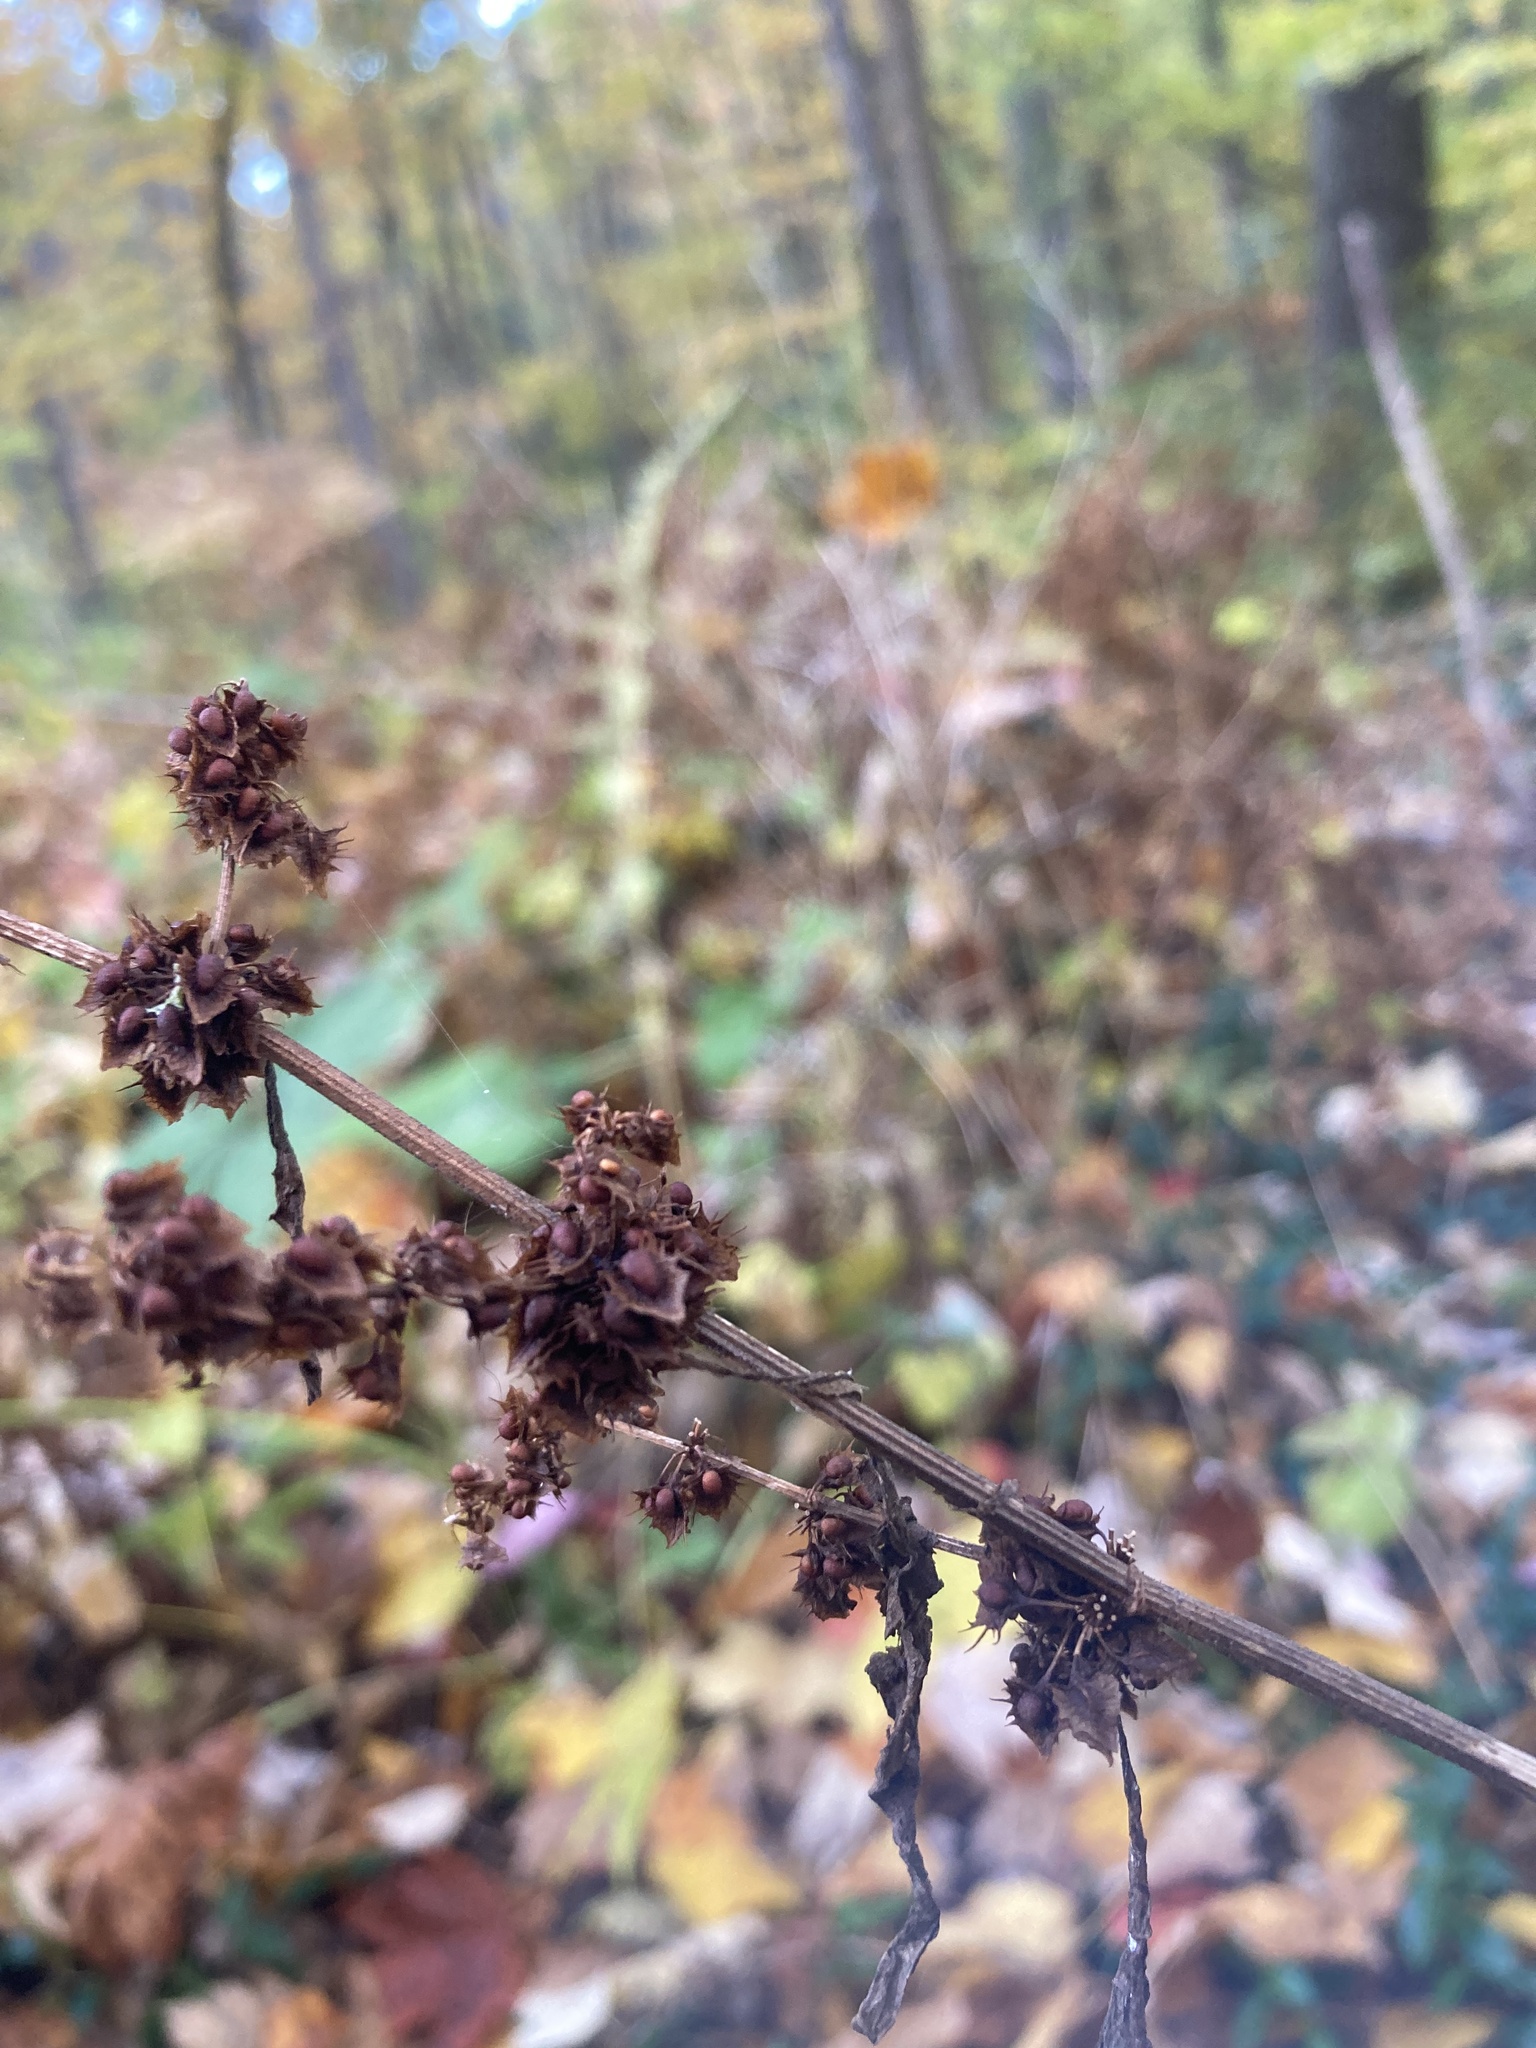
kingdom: Plantae
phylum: Tracheophyta
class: Magnoliopsida
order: Caryophyllales
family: Polygonaceae
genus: Rumex
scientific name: Rumex obtusifolius
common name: Bitter dock
